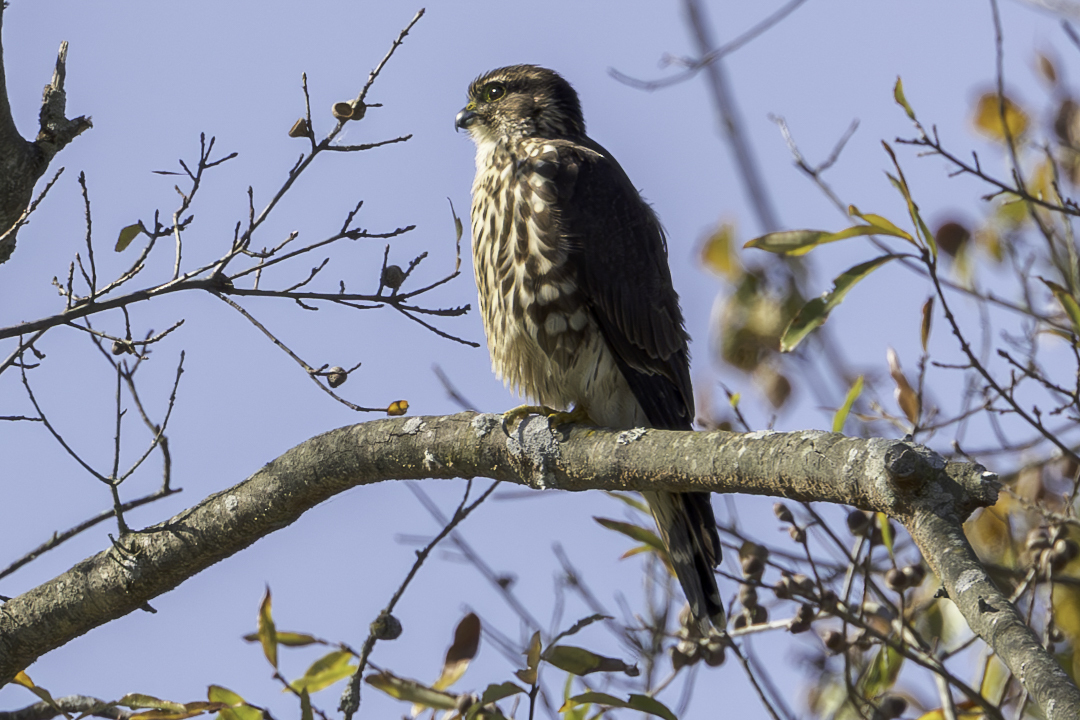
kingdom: Animalia
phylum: Chordata
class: Aves
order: Falconiformes
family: Falconidae
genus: Falco
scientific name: Falco columbarius
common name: Merlin
